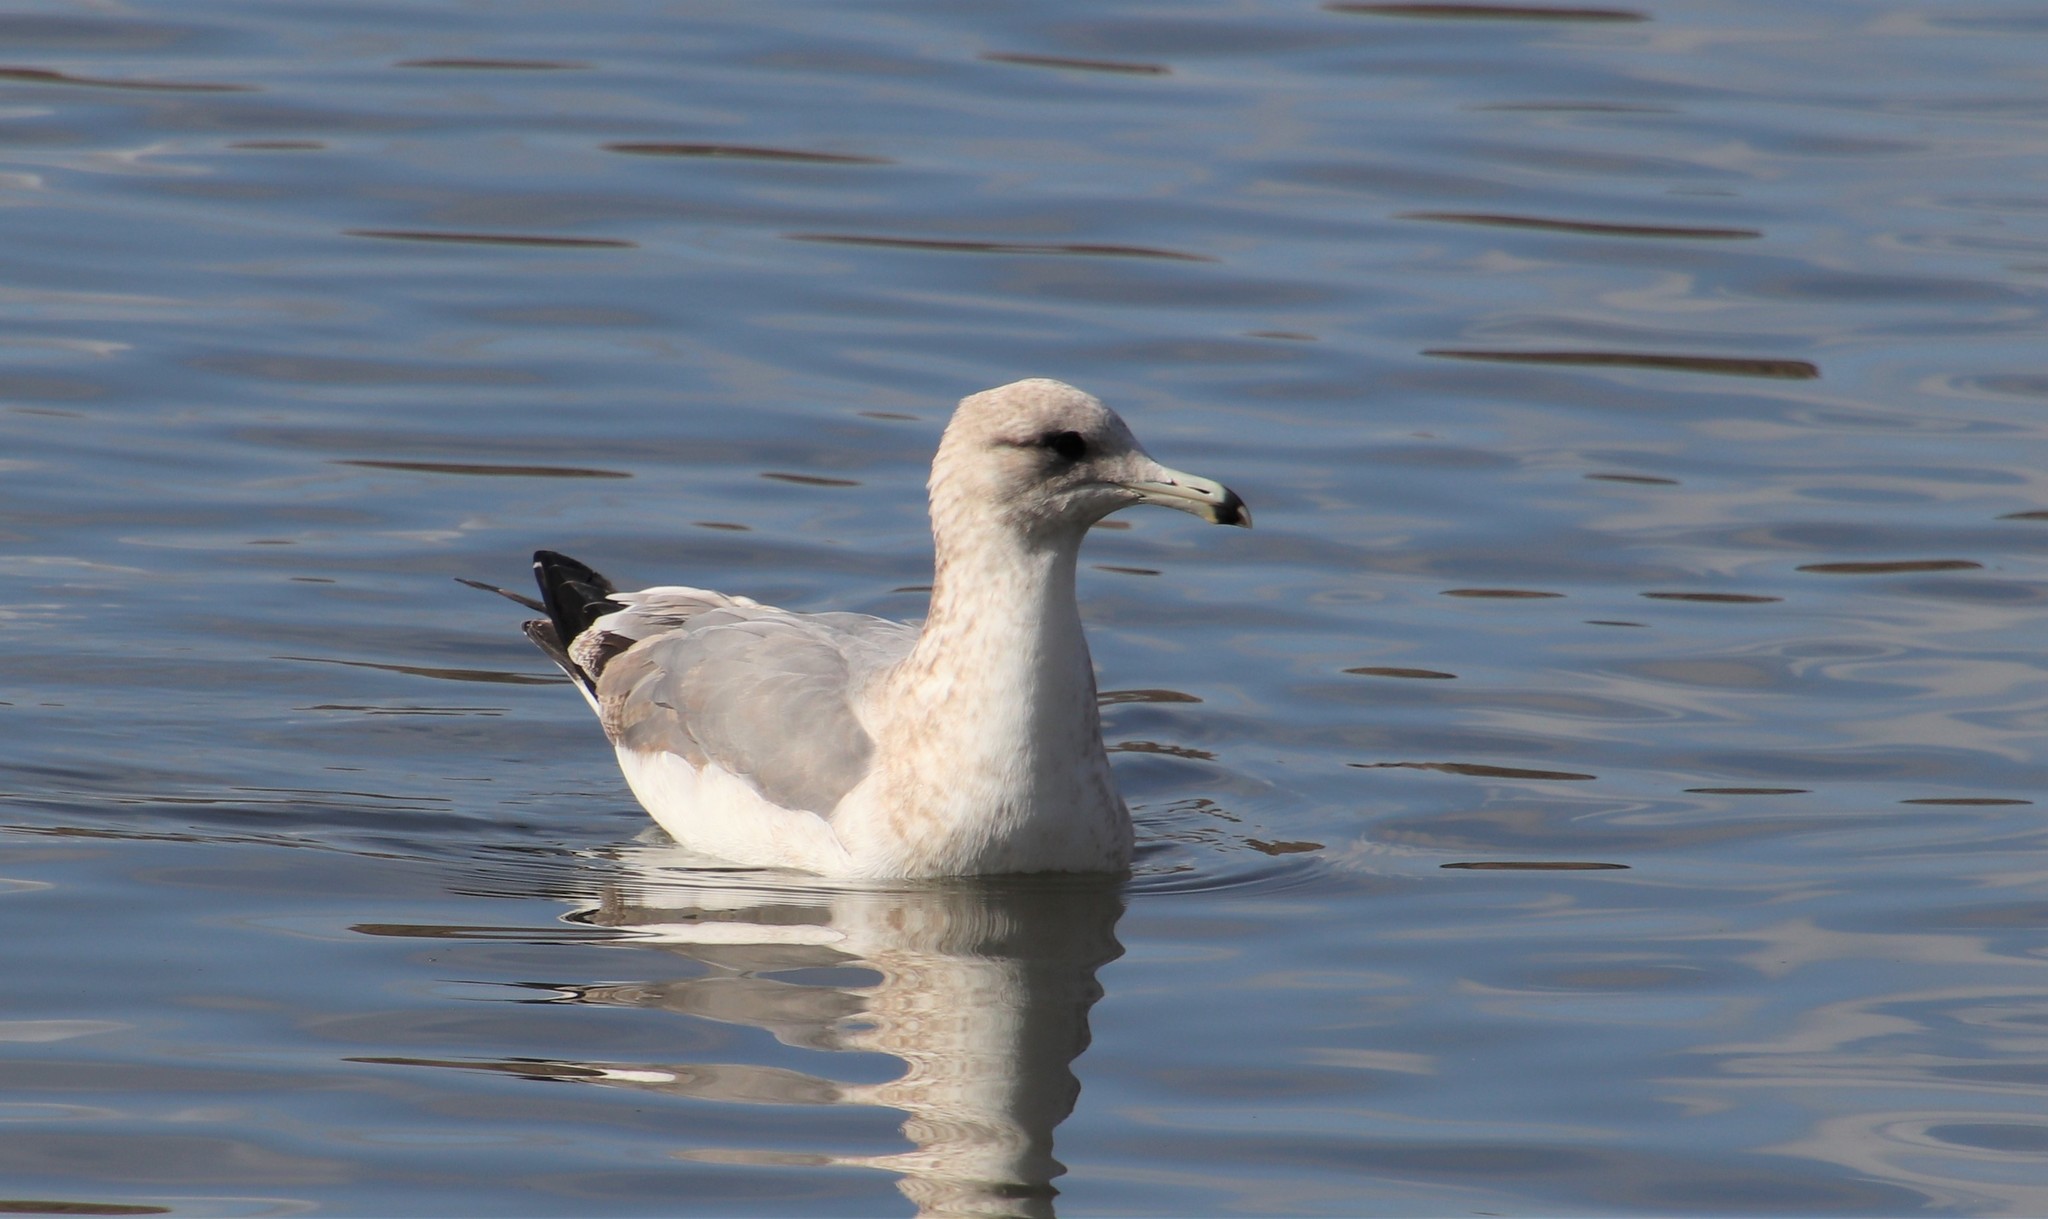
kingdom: Animalia
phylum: Chordata
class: Aves
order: Charadriiformes
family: Laridae
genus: Larus
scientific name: Larus californicus
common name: California gull
